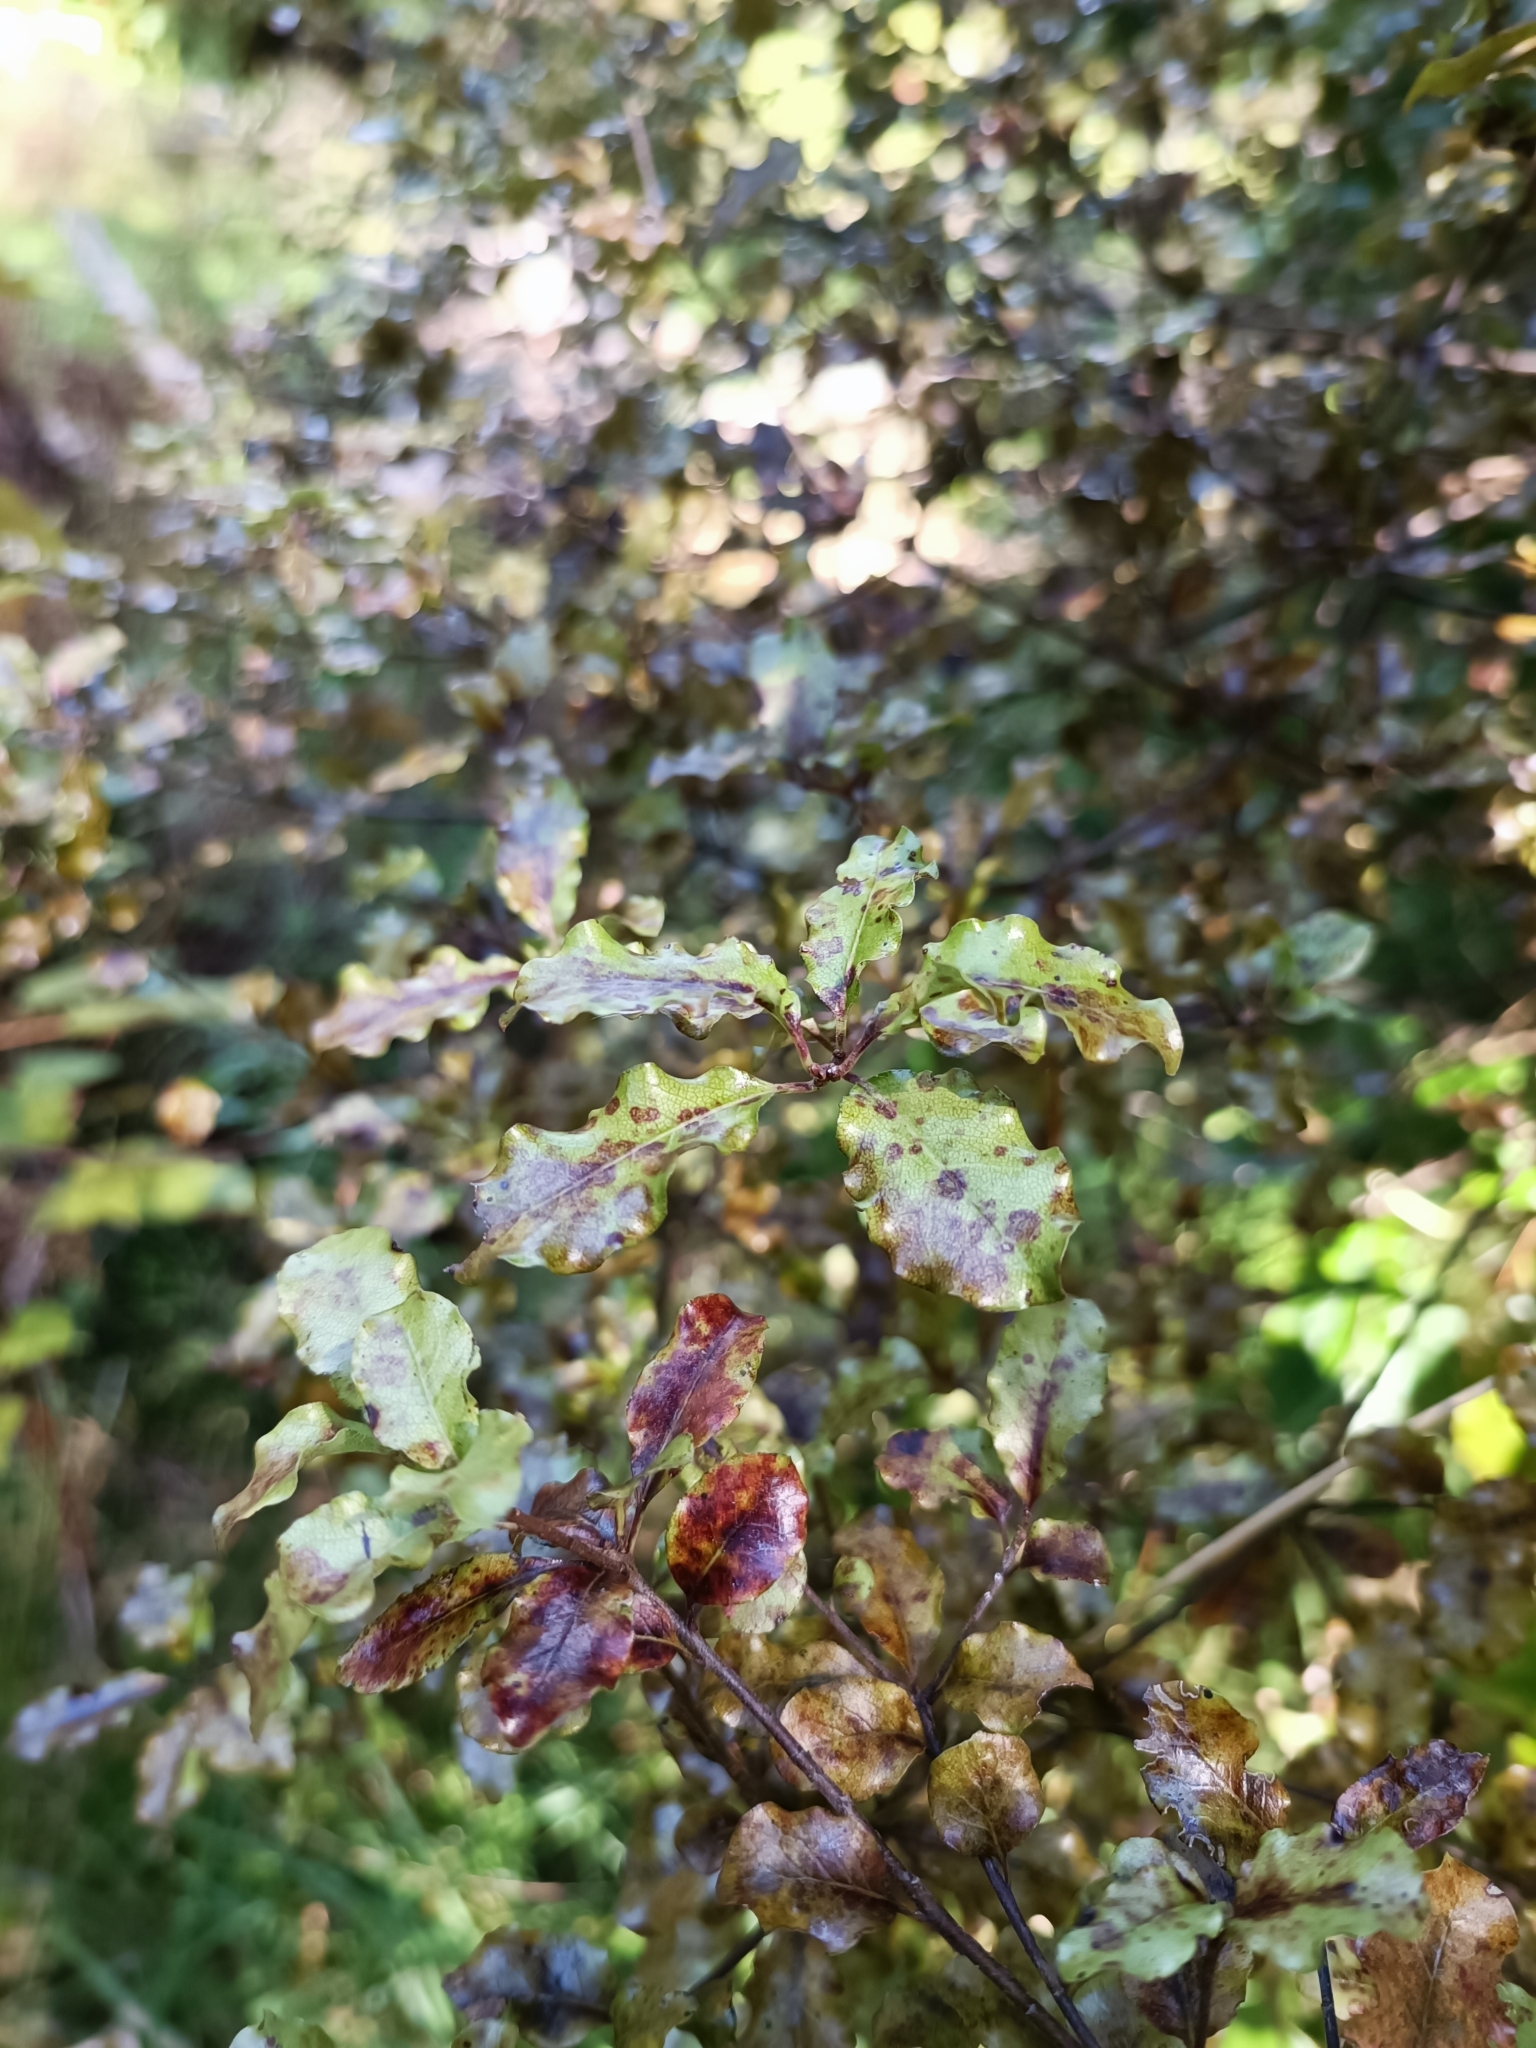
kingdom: Plantae
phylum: Tracheophyta
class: Magnoliopsida
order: Apiales
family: Pittosporaceae
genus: Pittosporum
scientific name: Pittosporum tenuifolium
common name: Kohuhu
